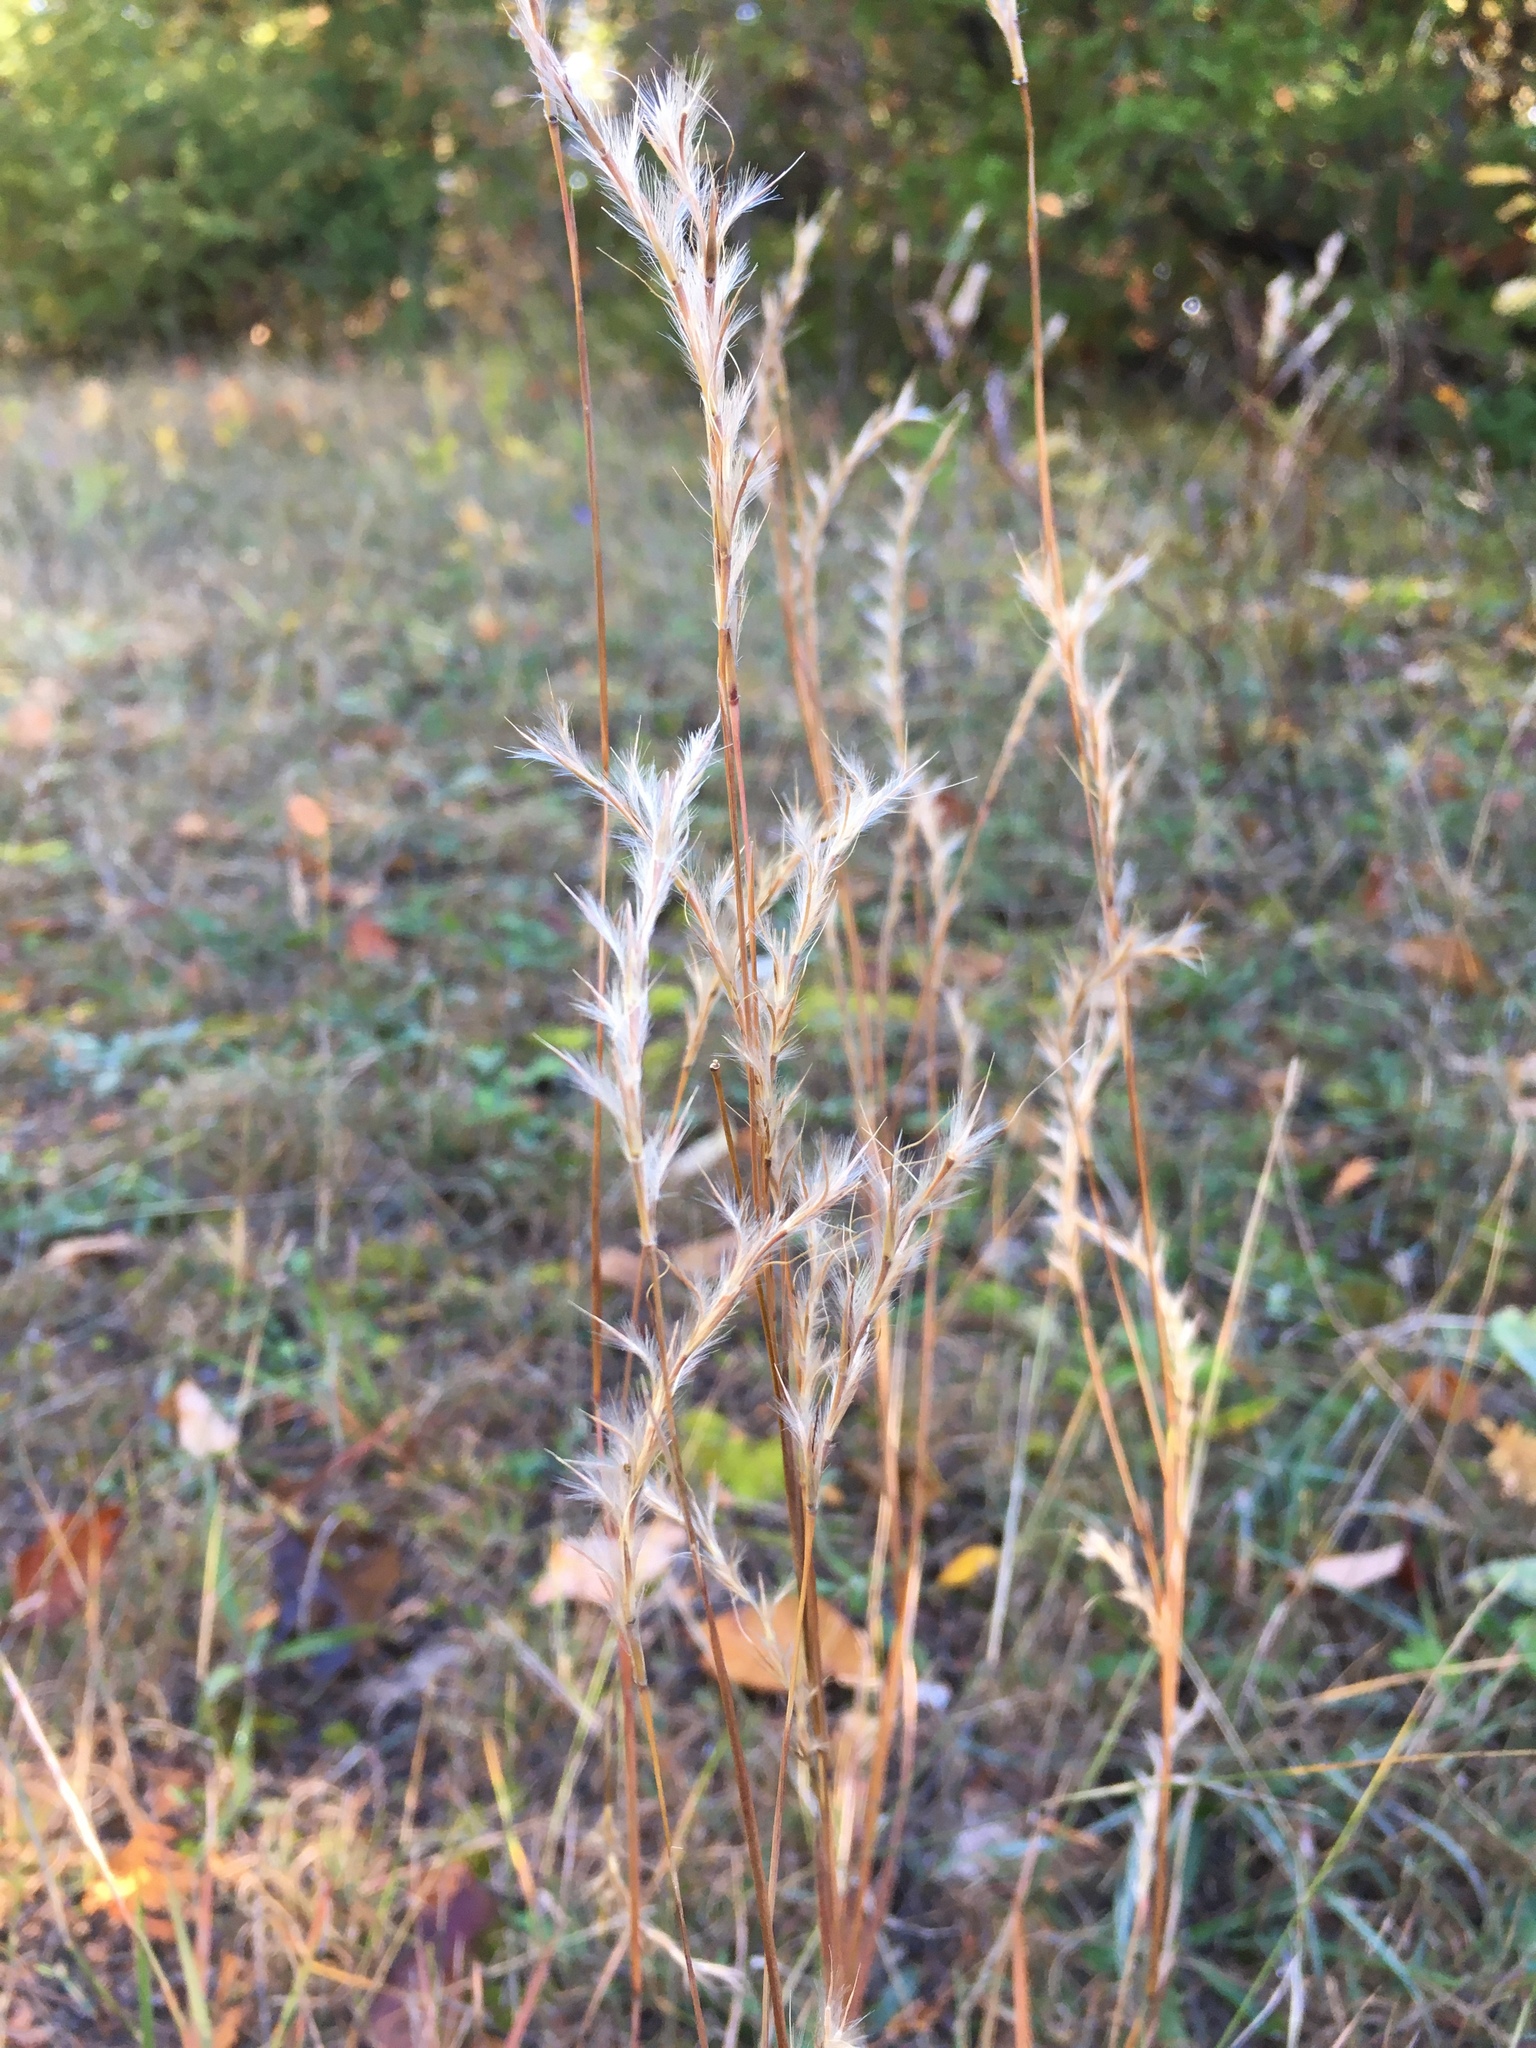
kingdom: Plantae
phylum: Tracheophyta
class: Liliopsida
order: Poales
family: Poaceae
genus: Schizachyrium
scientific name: Schizachyrium scoparium
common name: Little bluestem
